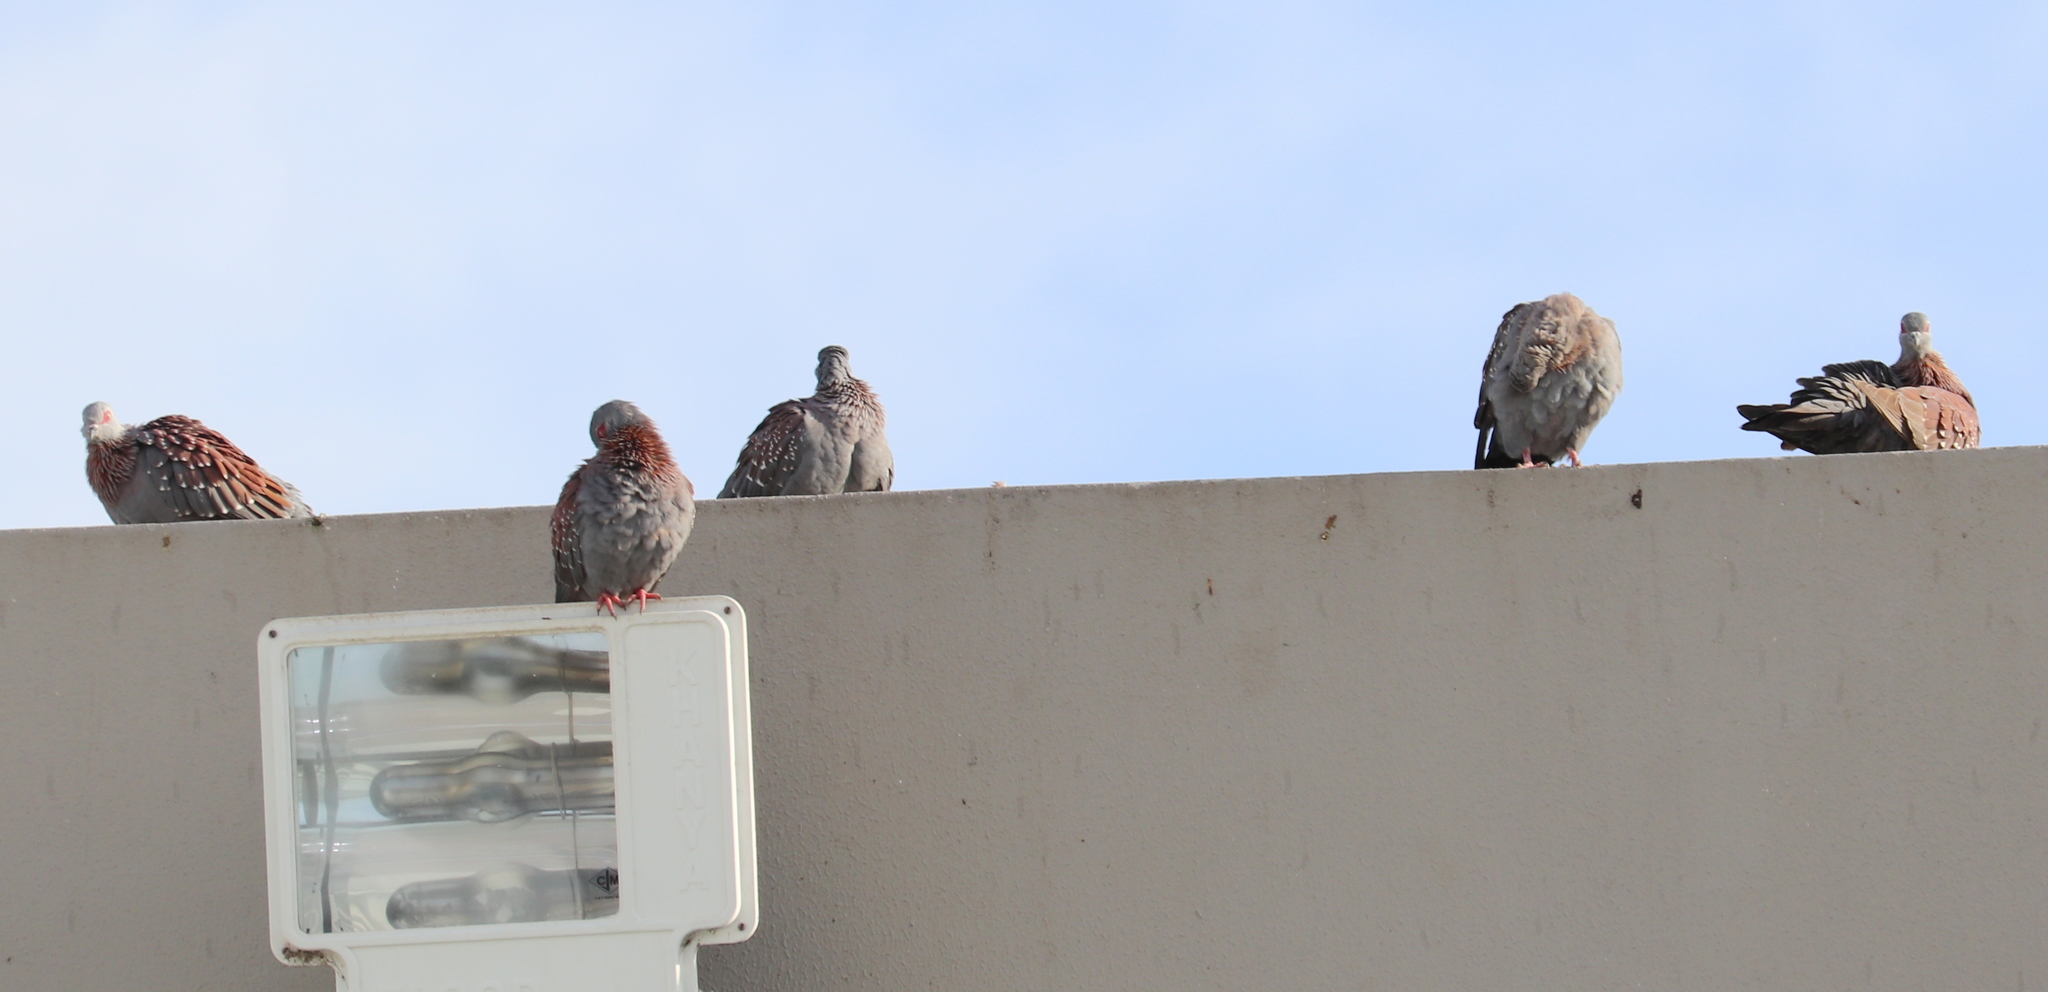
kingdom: Animalia
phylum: Chordata
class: Aves
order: Columbiformes
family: Columbidae
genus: Columba
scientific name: Columba guinea
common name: Speckled pigeon
